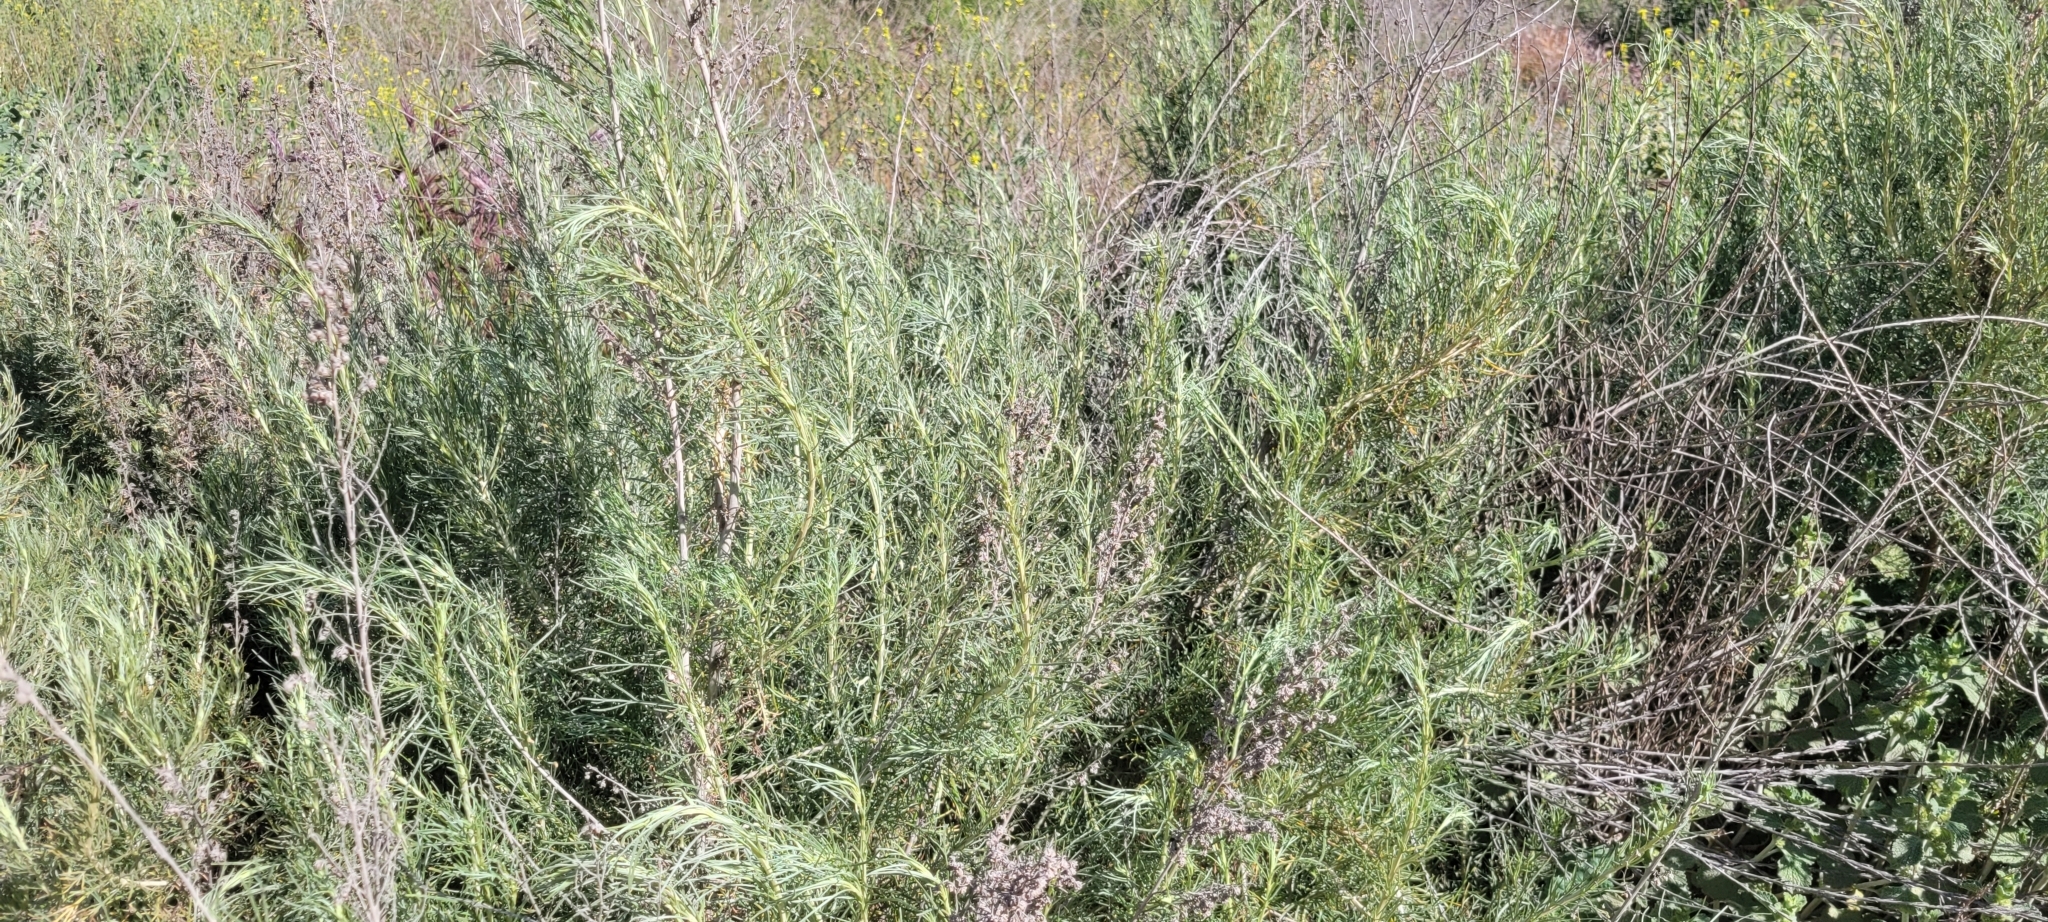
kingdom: Plantae
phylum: Tracheophyta
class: Magnoliopsida
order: Asterales
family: Asteraceae
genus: Artemisia
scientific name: Artemisia californica
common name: California sagebrush
